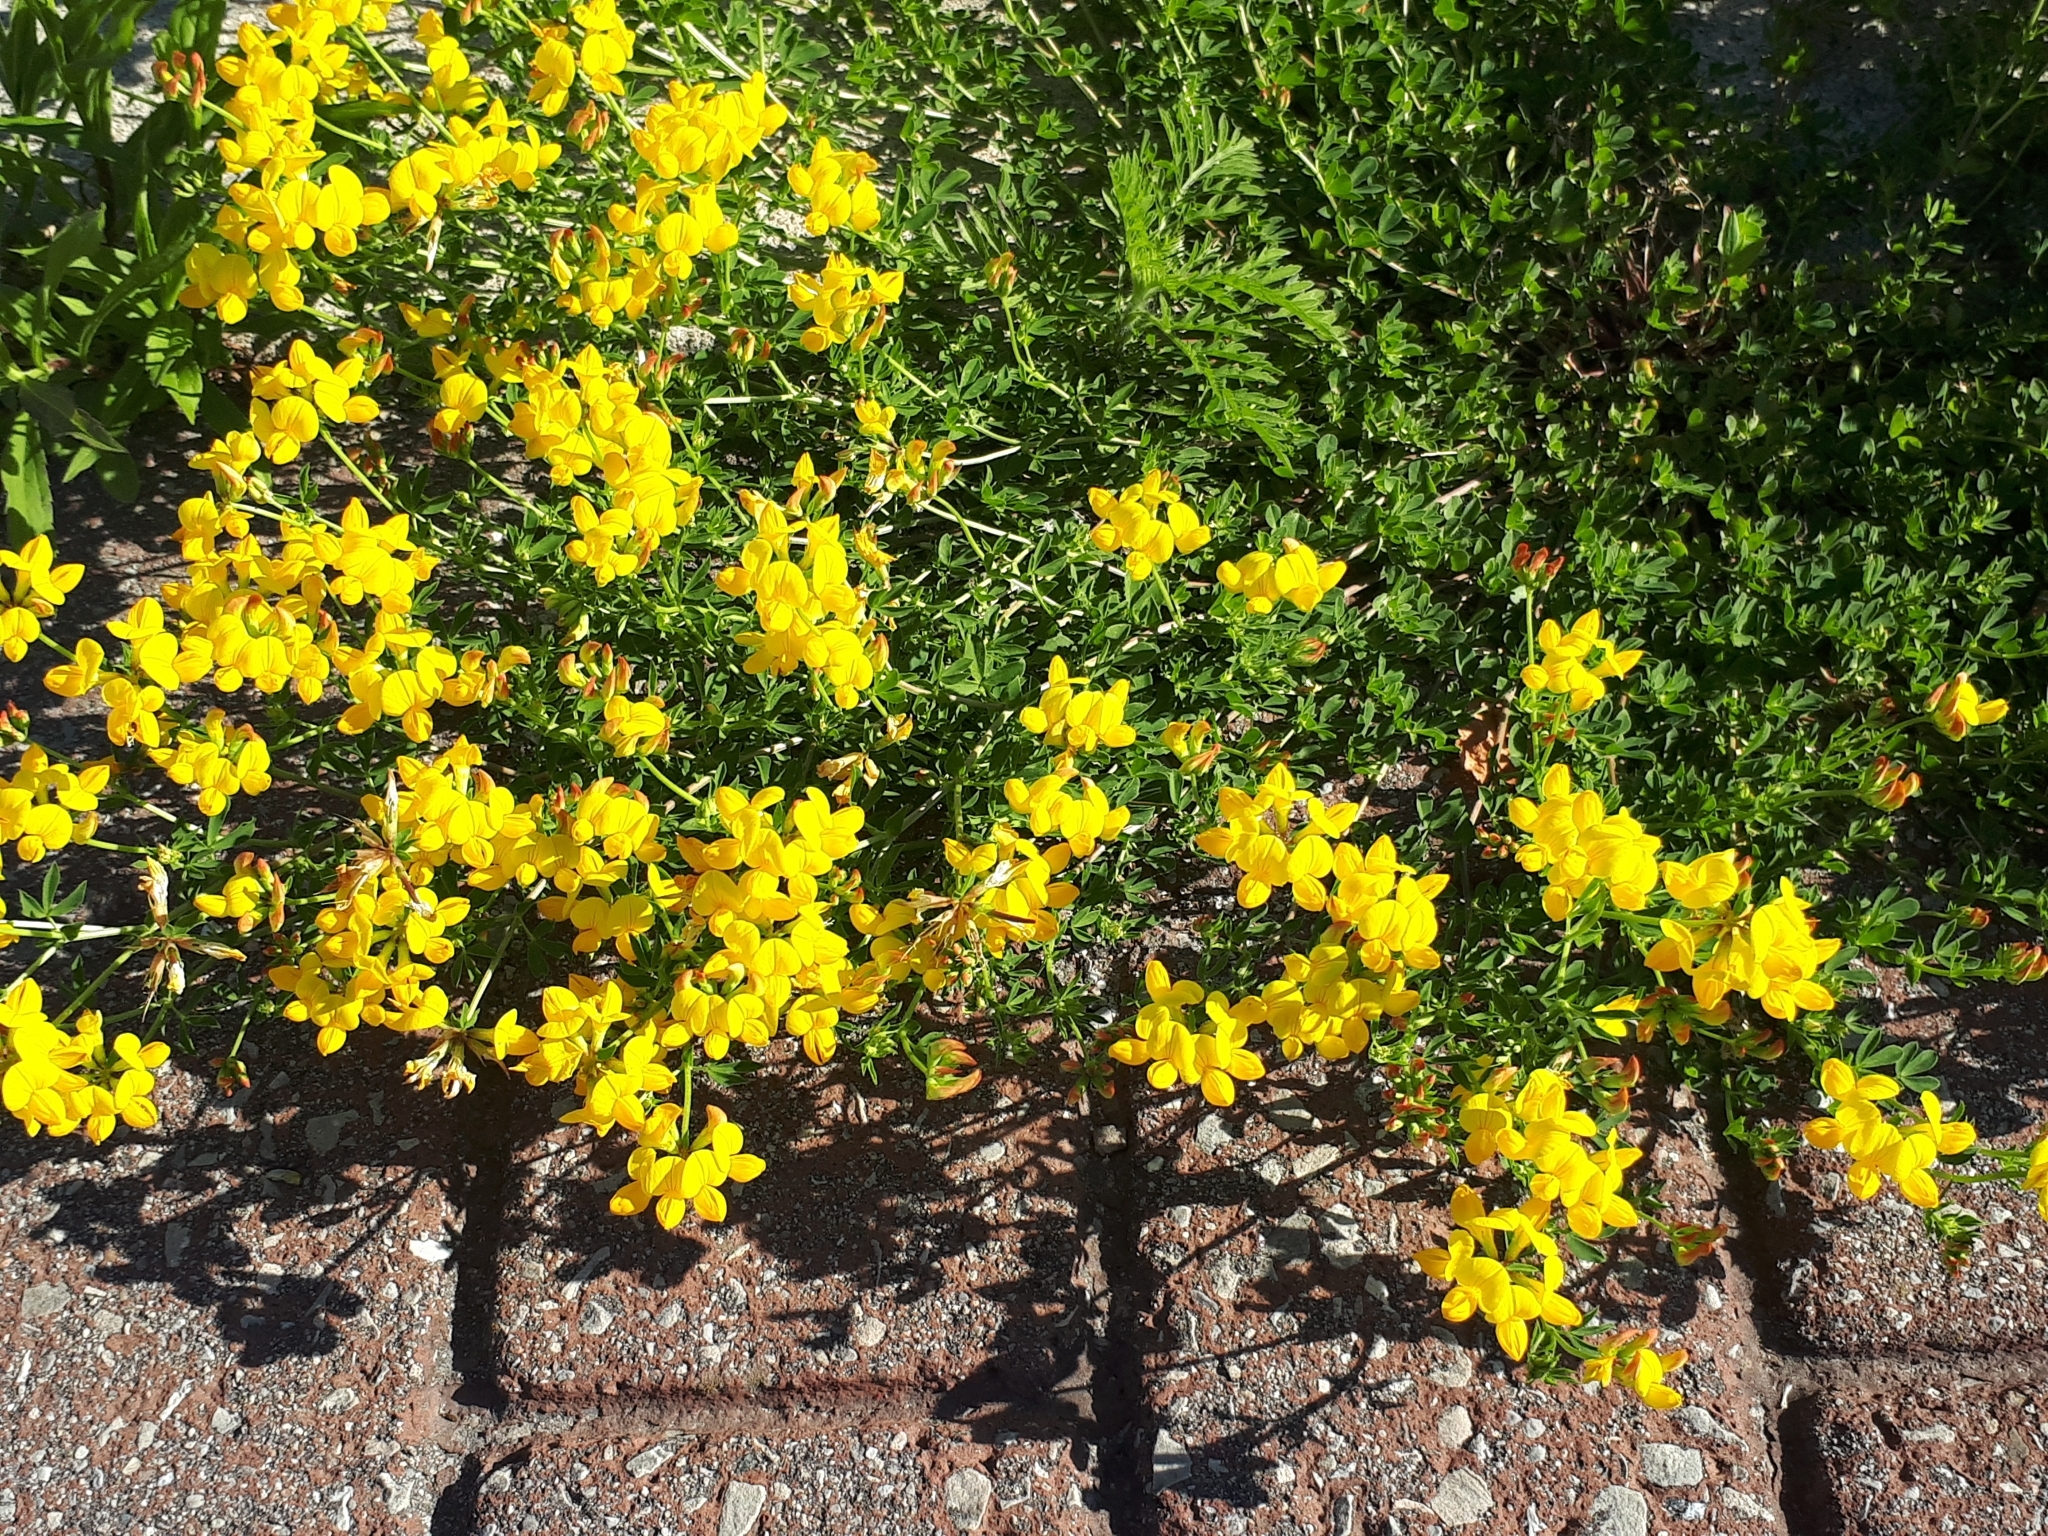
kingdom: Plantae
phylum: Tracheophyta
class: Magnoliopsida
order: Fabales
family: Fabaceae
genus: Lotus
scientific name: Lotus corniculatus
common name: Common bird's-foot-trefoil
